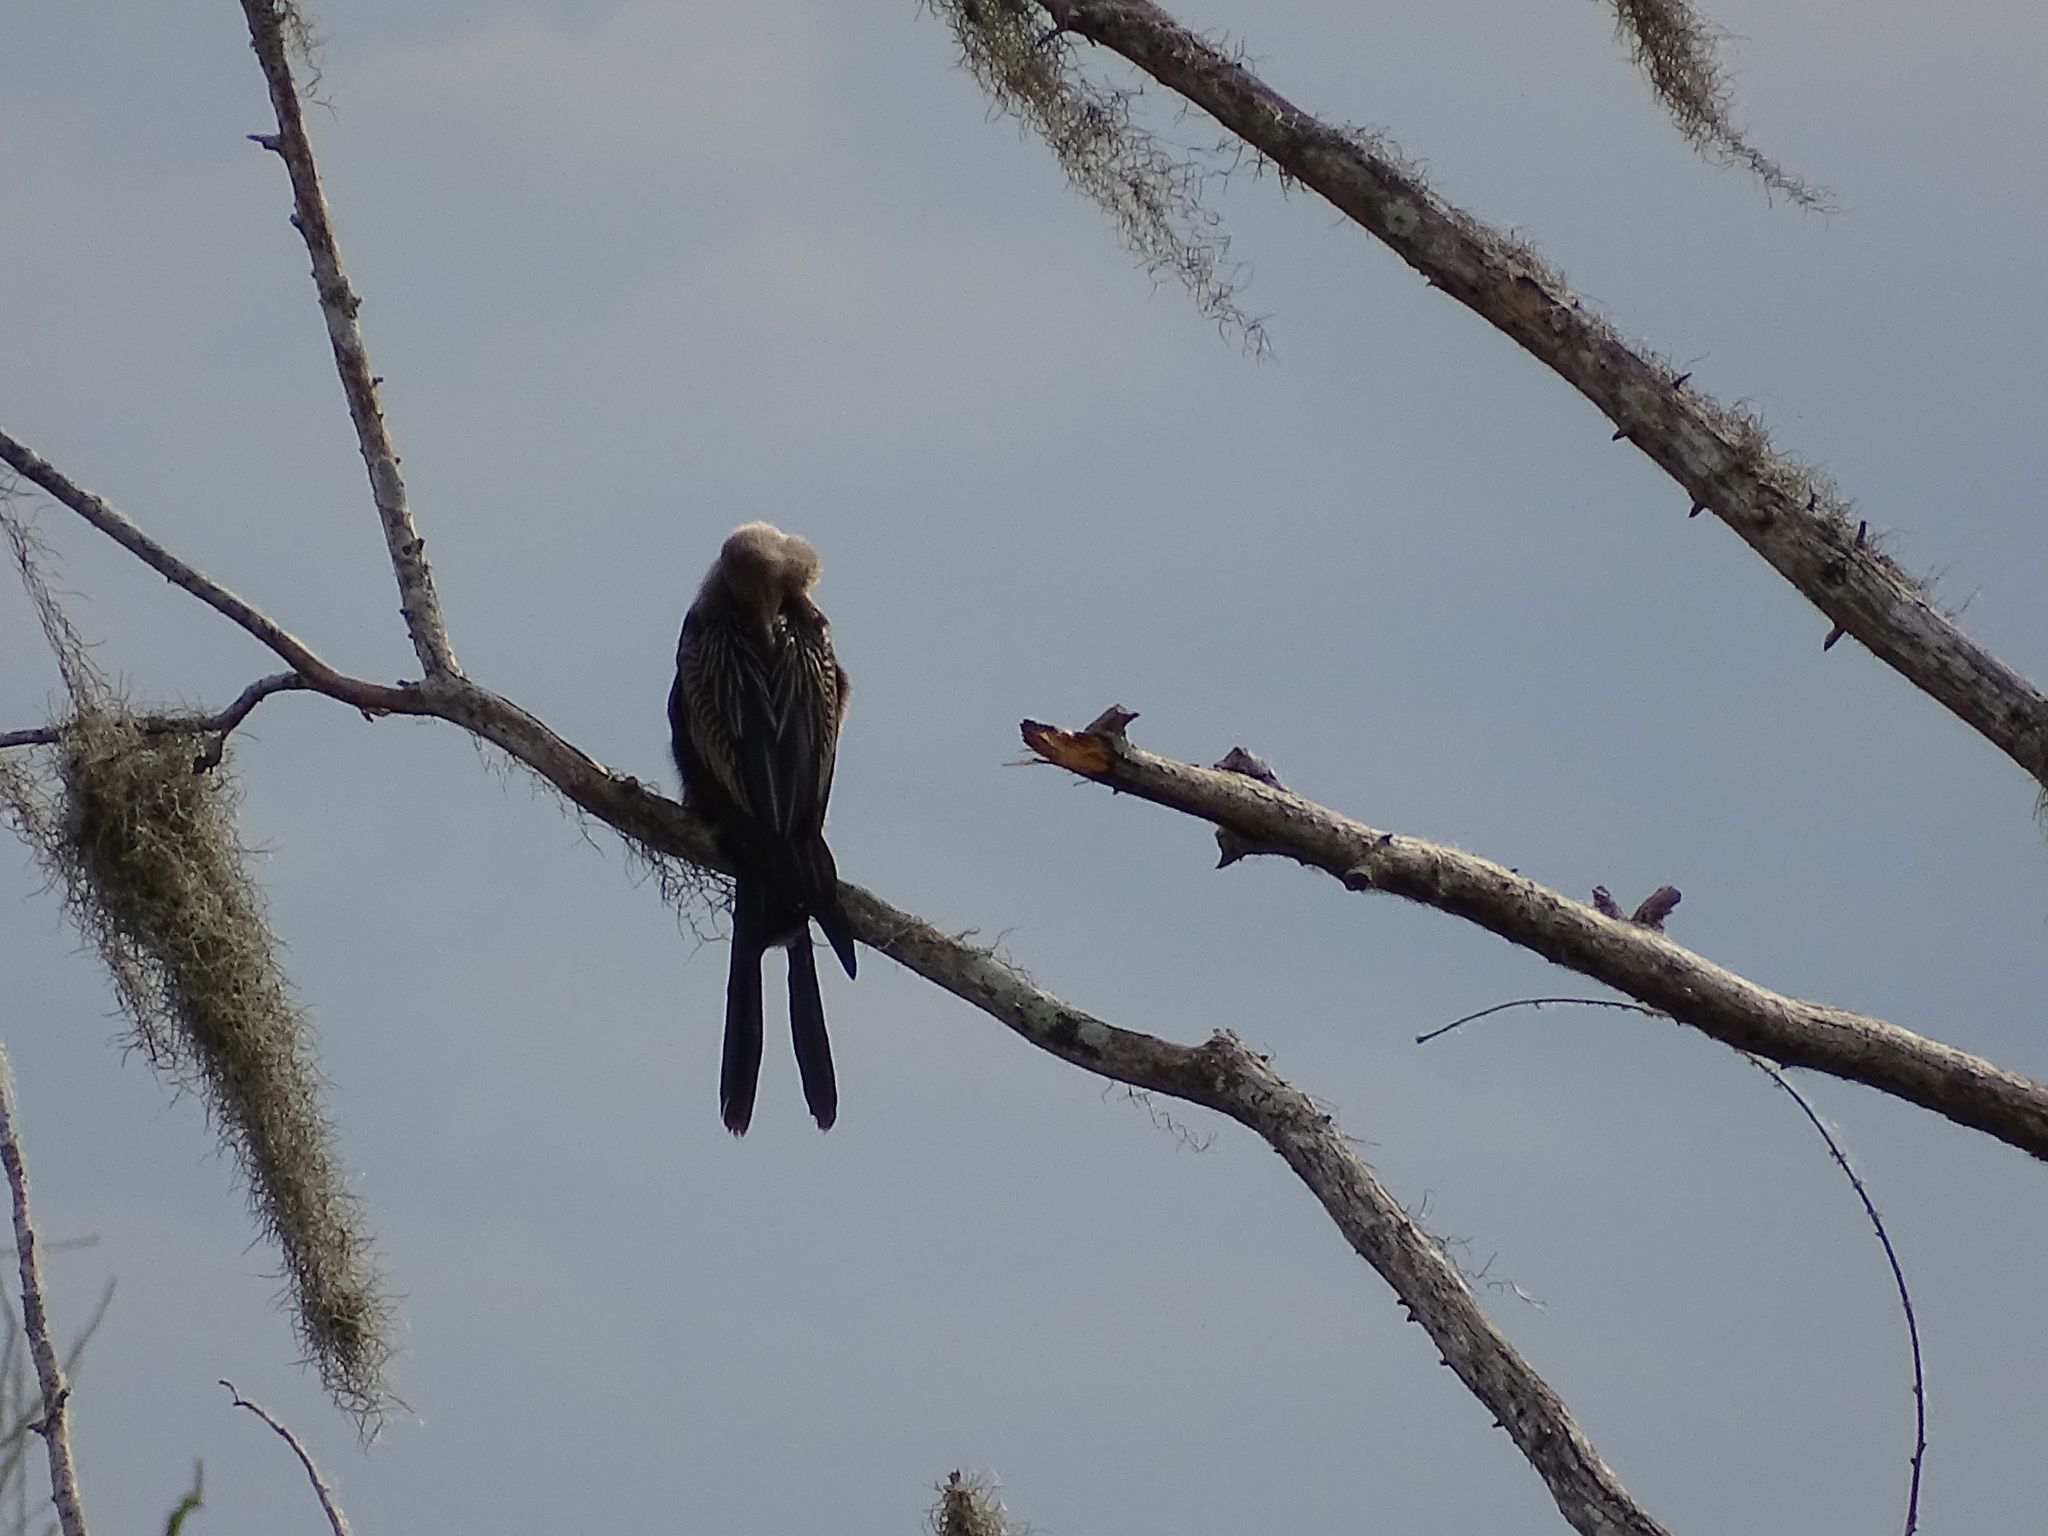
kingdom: Animalia
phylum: Chordata
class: Aves
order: Suliformes
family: Anhingidae
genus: Anhinga
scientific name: Anhinga anhinga
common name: Anhinga
